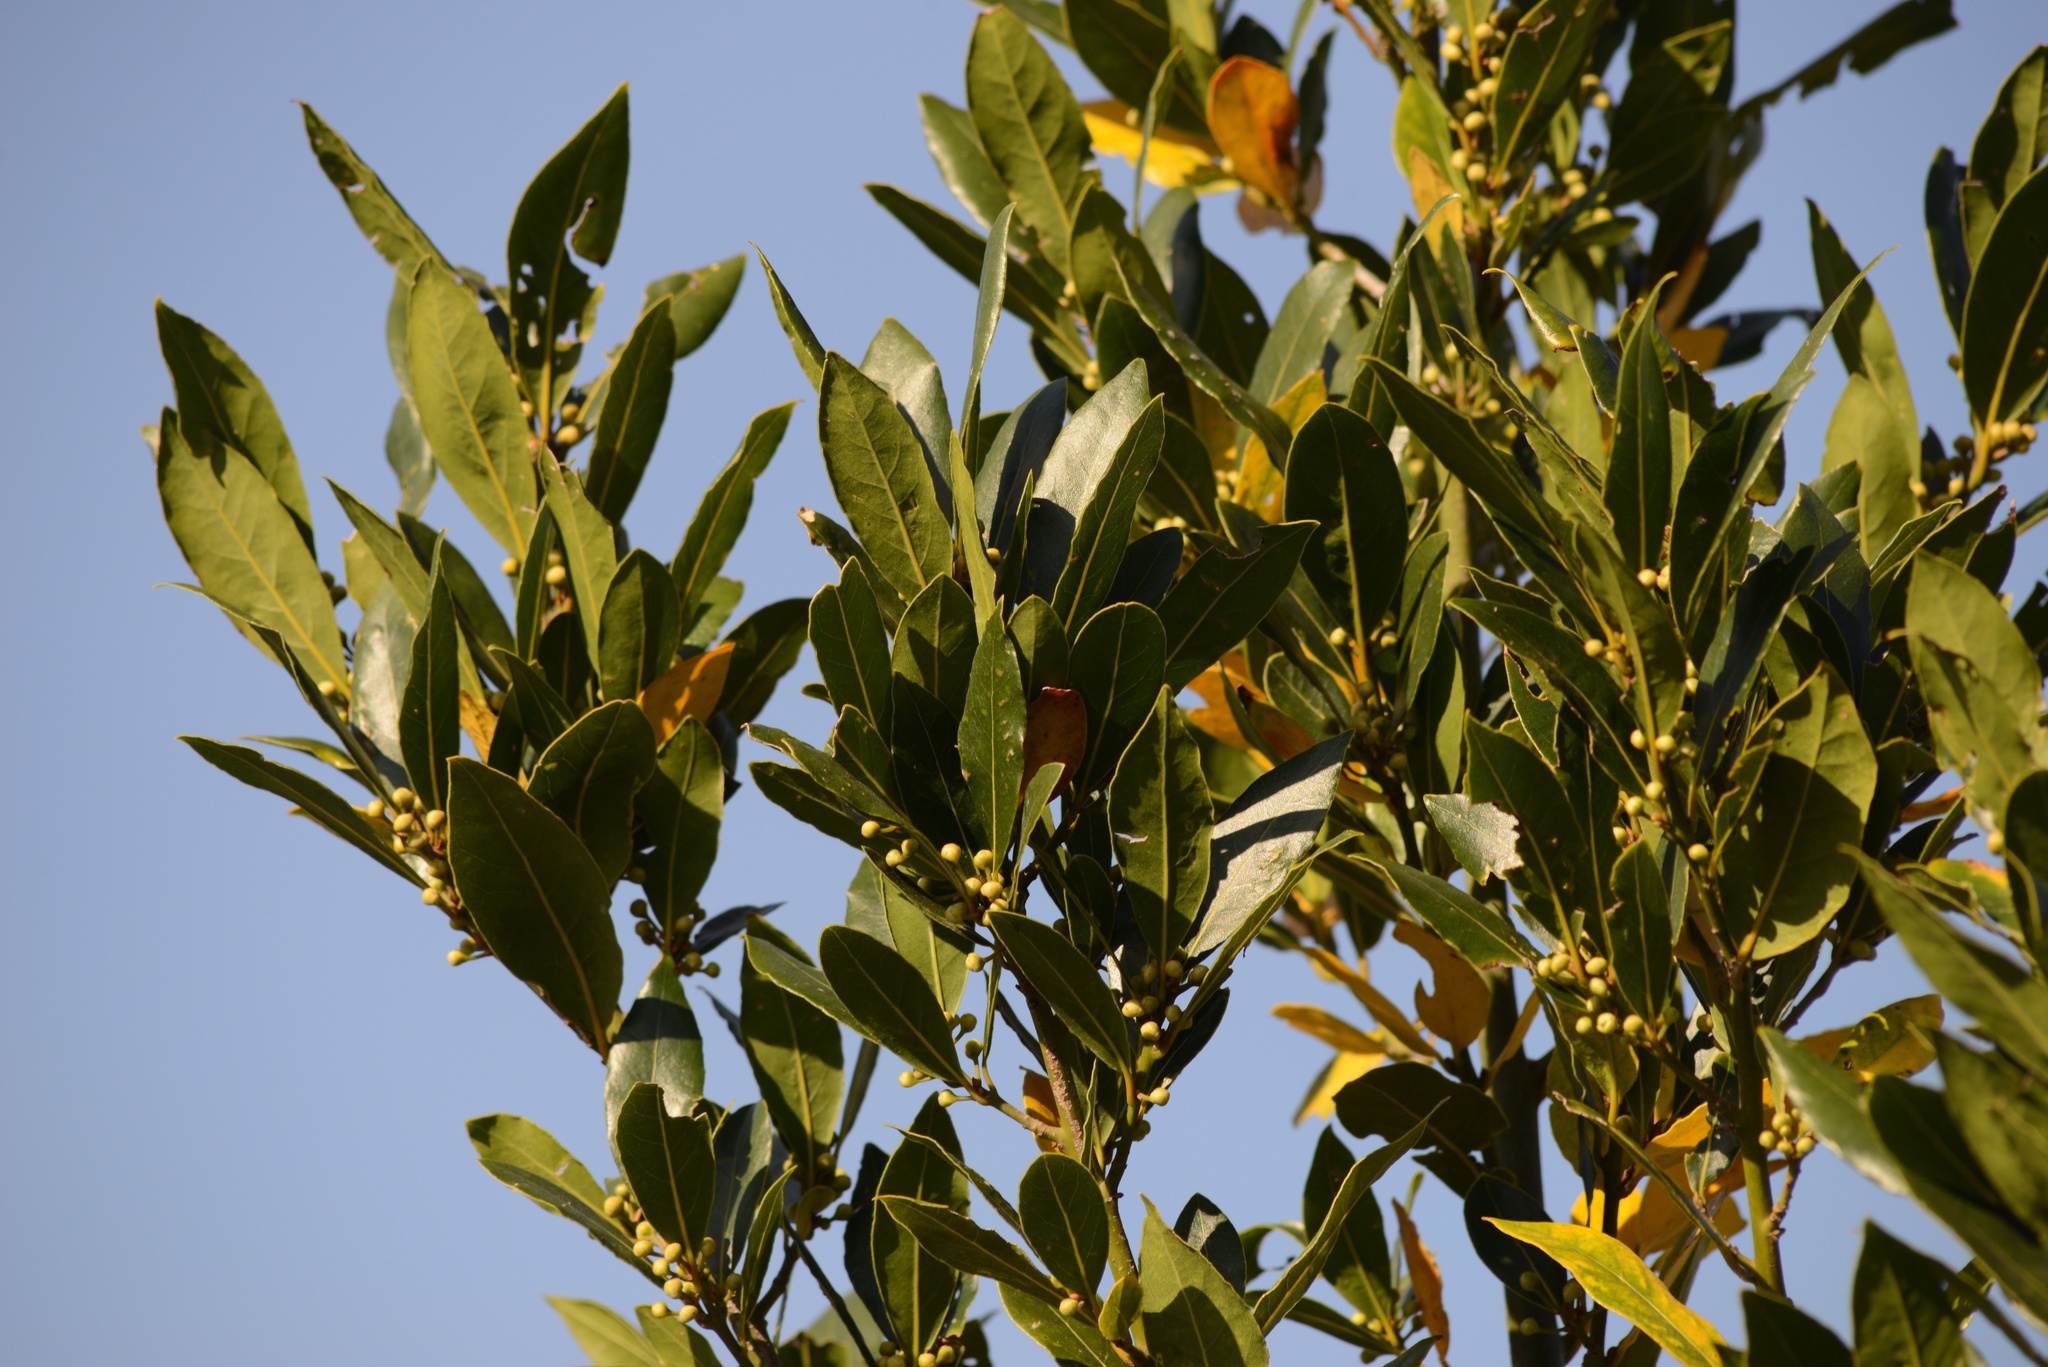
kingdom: Plantae
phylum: Tracheophyta
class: Magnoliopsida
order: Laurales
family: Lauraceae
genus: Laurus
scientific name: Laurus nobilis
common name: Bay
